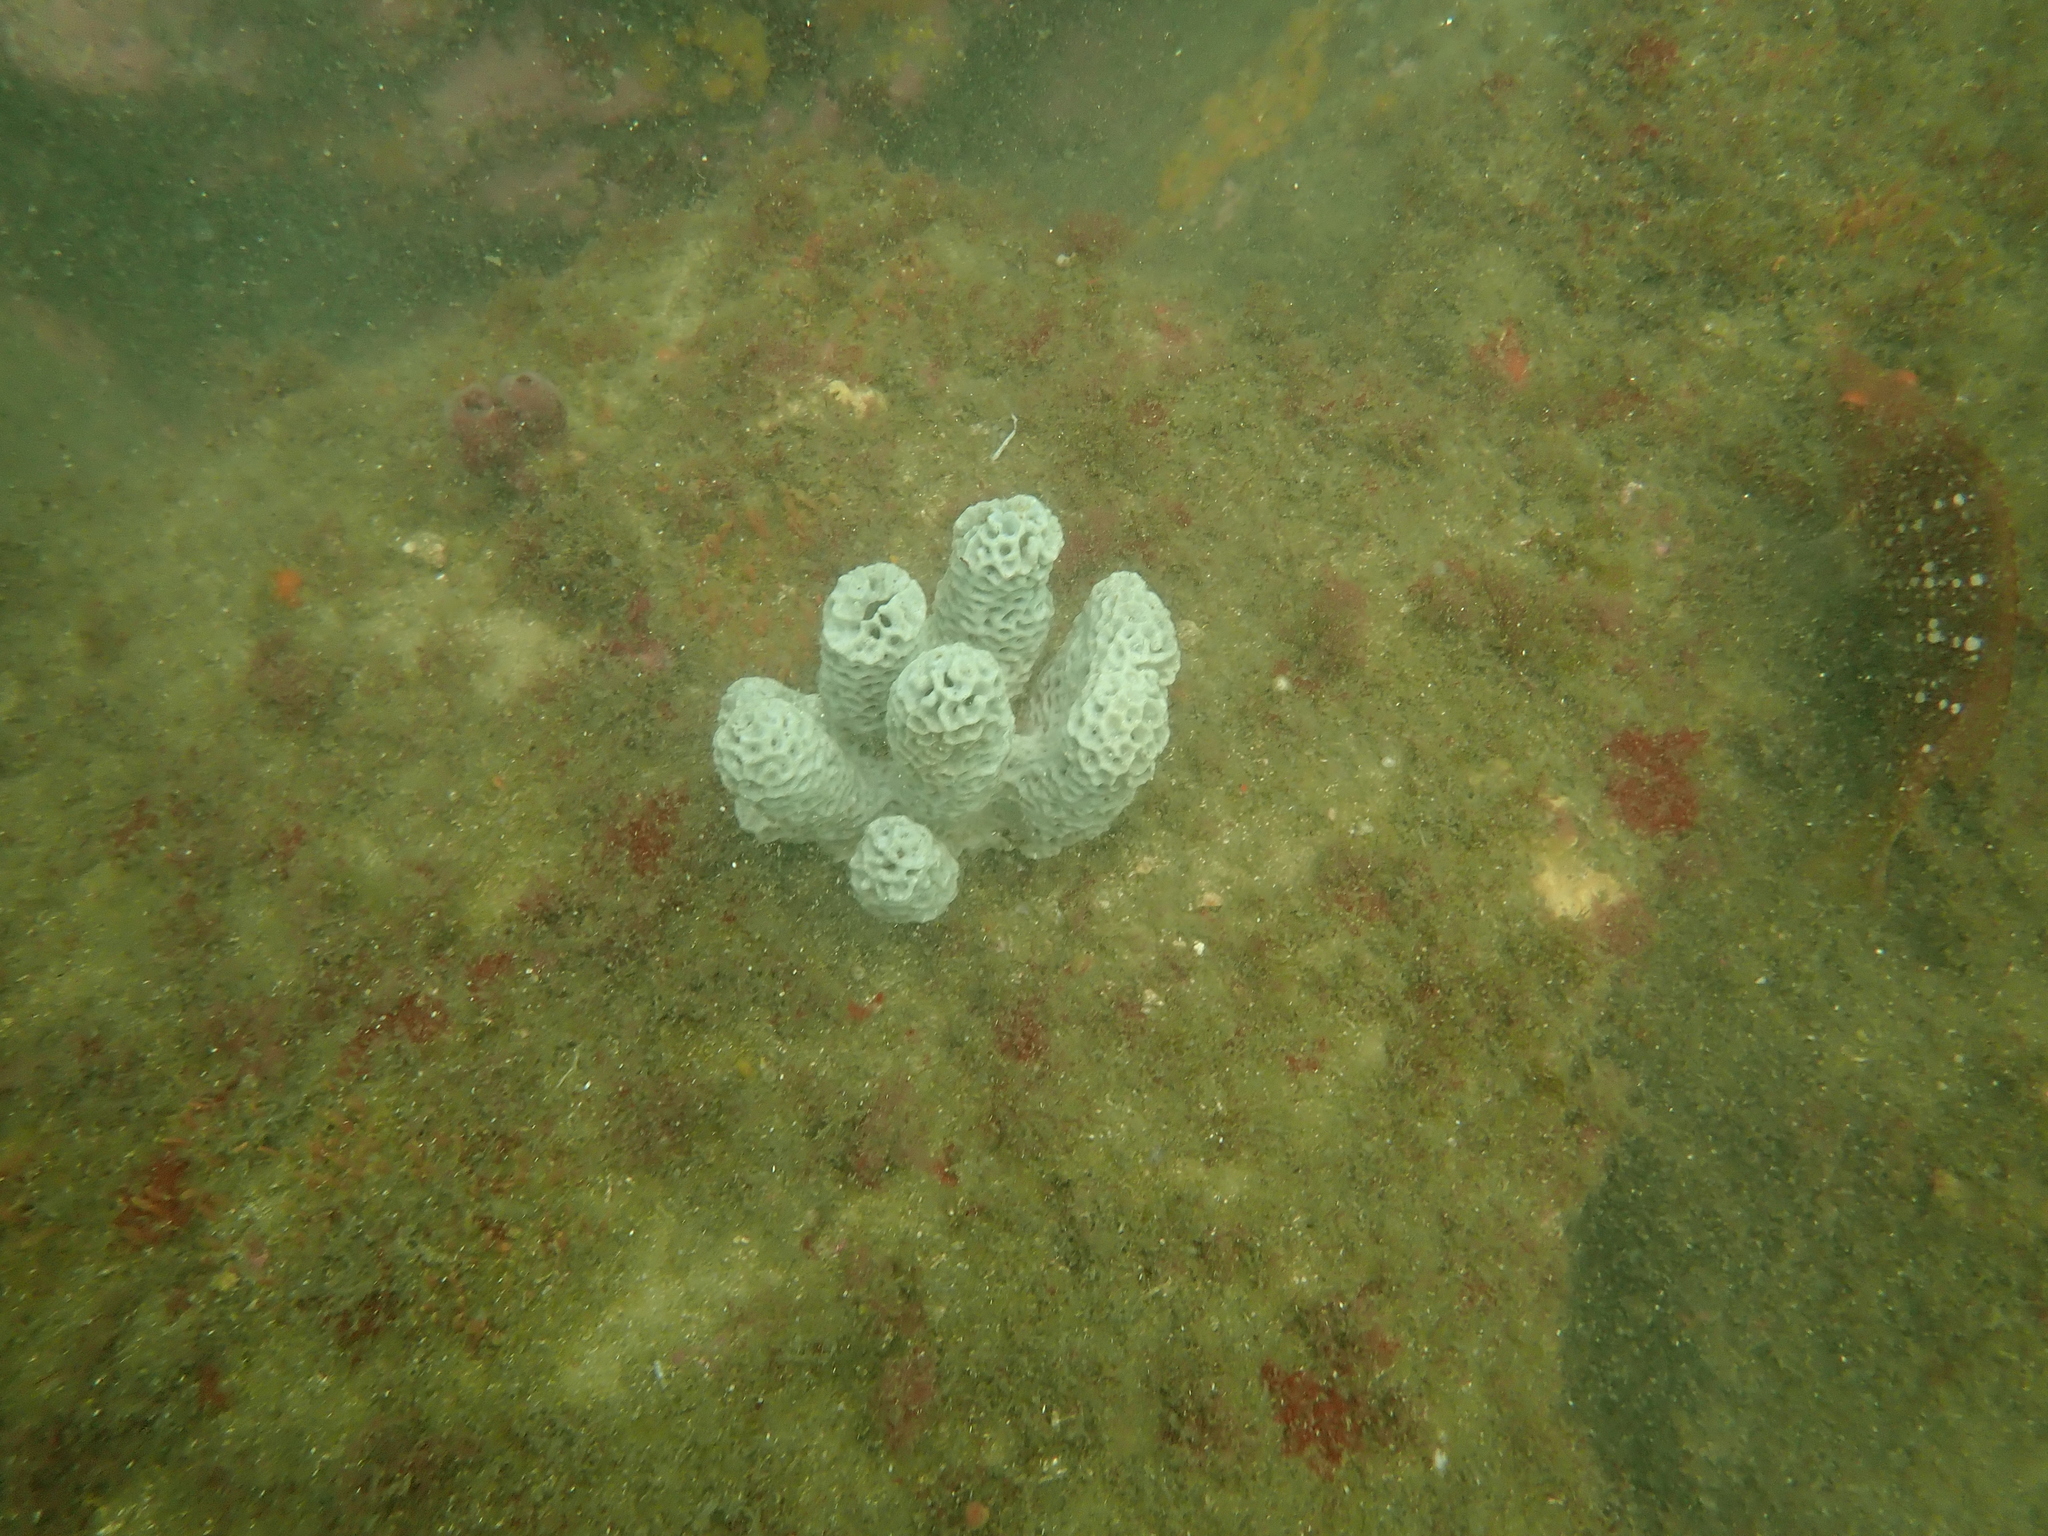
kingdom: Animalia
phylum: Porifera
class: Demospongiae
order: Poecilosclerida
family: Microcionidae
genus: Holopsamma
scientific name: Holopsamma laminaefavosa
